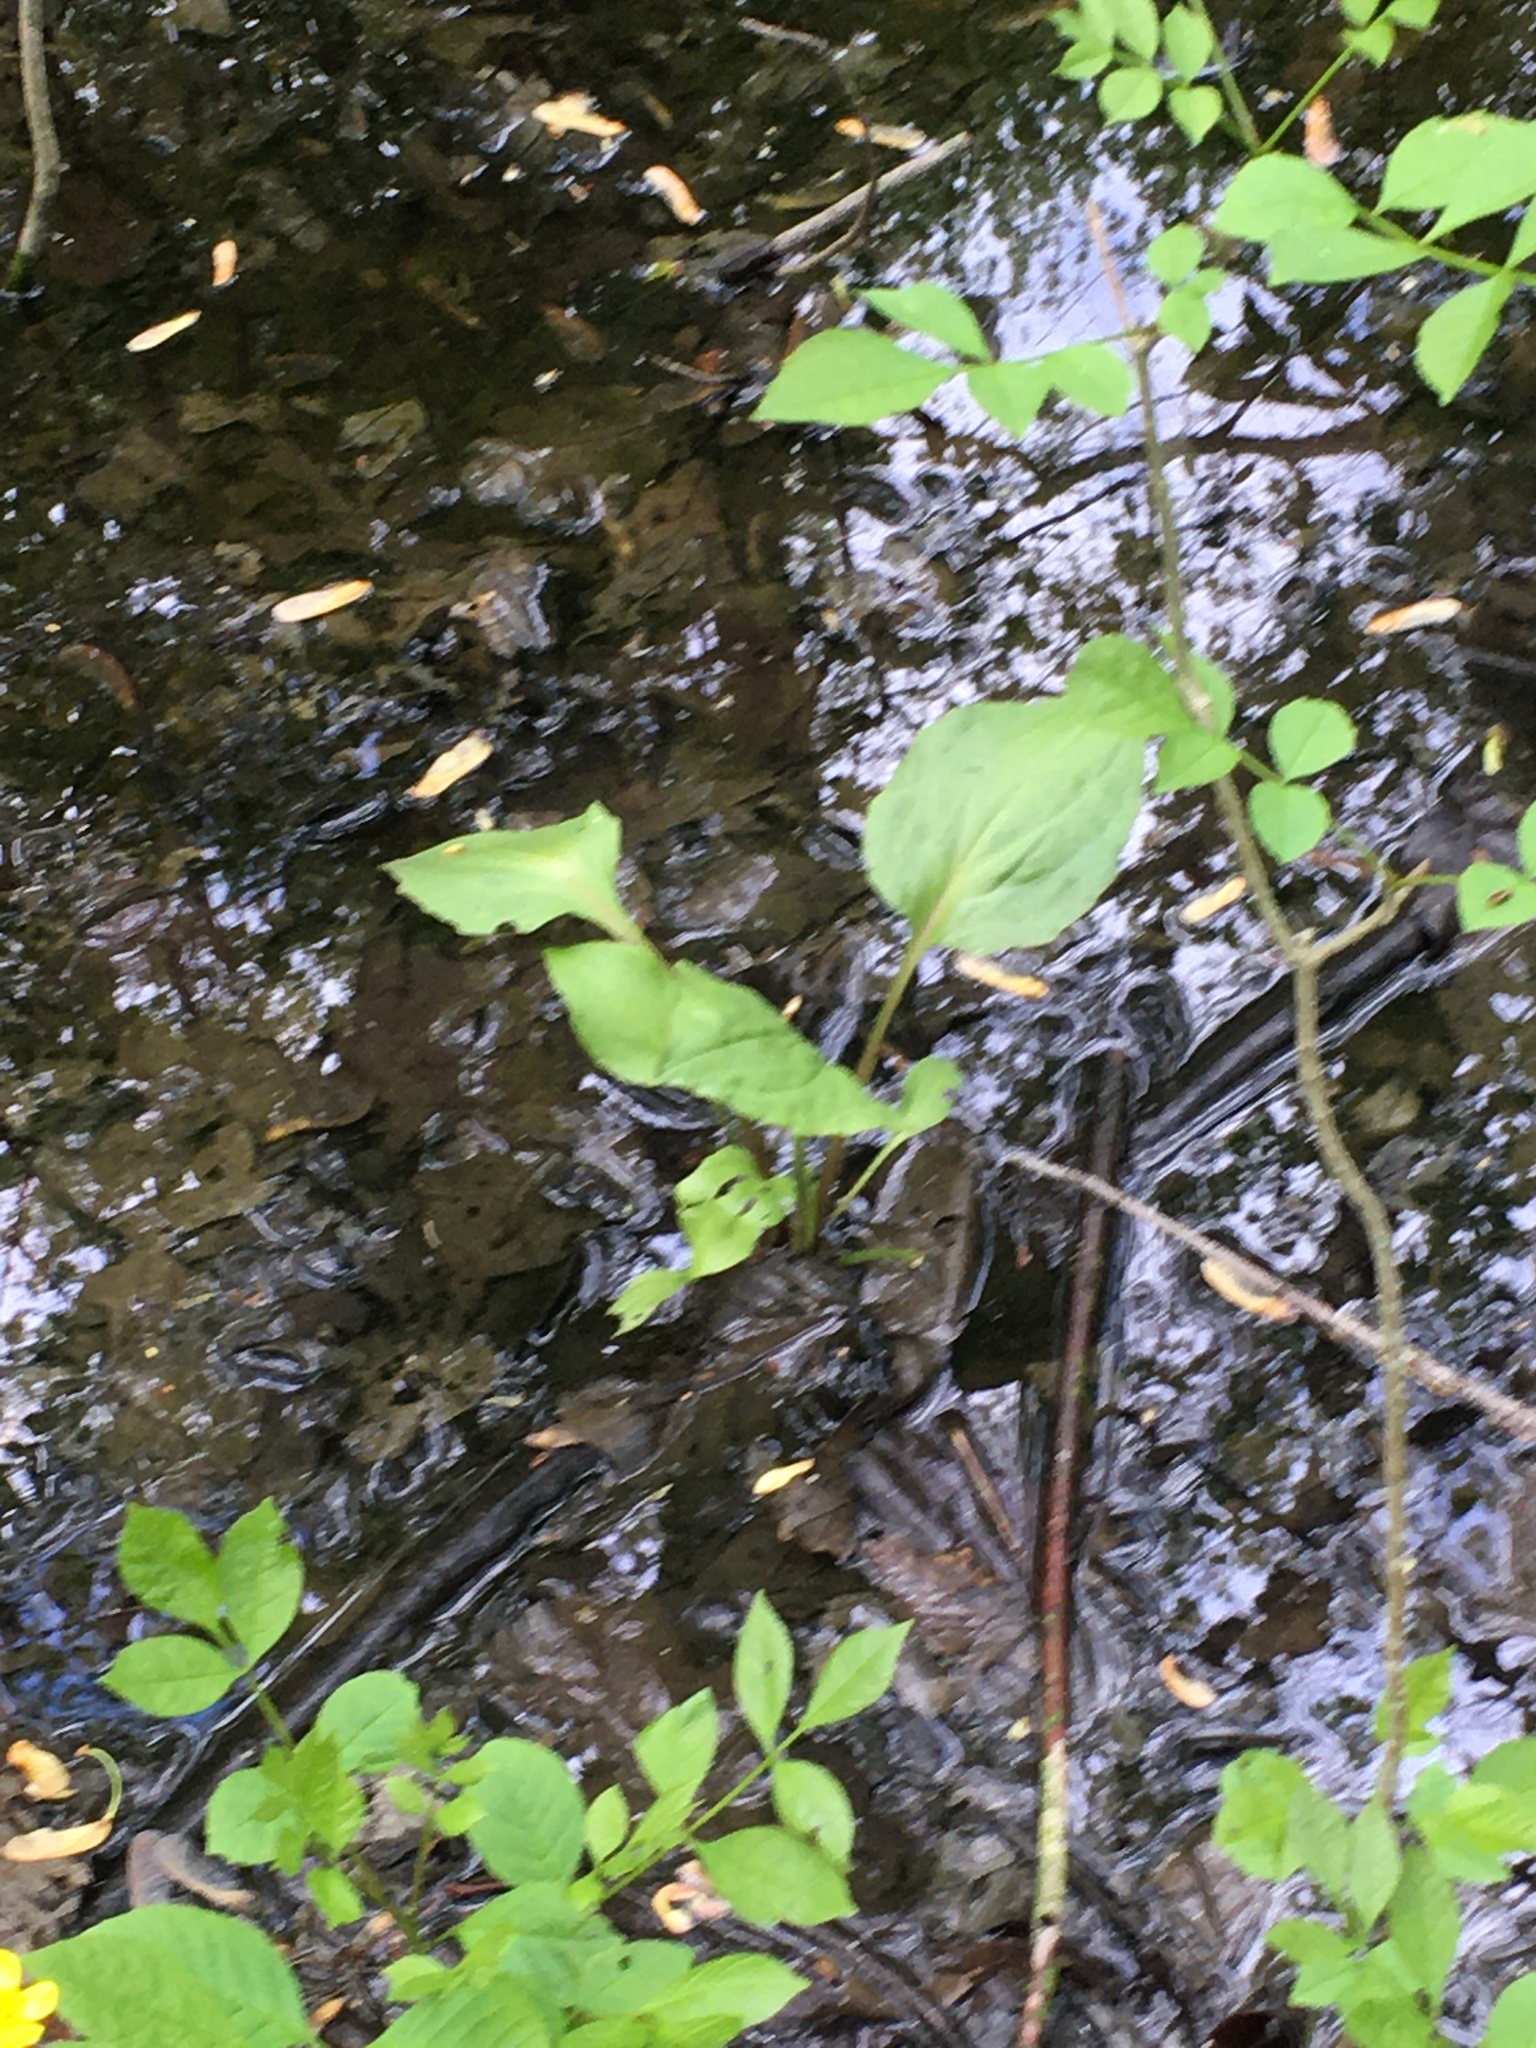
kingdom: Plantae
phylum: Tracheophyta
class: Magnoliopsida
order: Lamiales
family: Plantaginaceae
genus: Plantago
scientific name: Plantago cordata
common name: Kingroot
